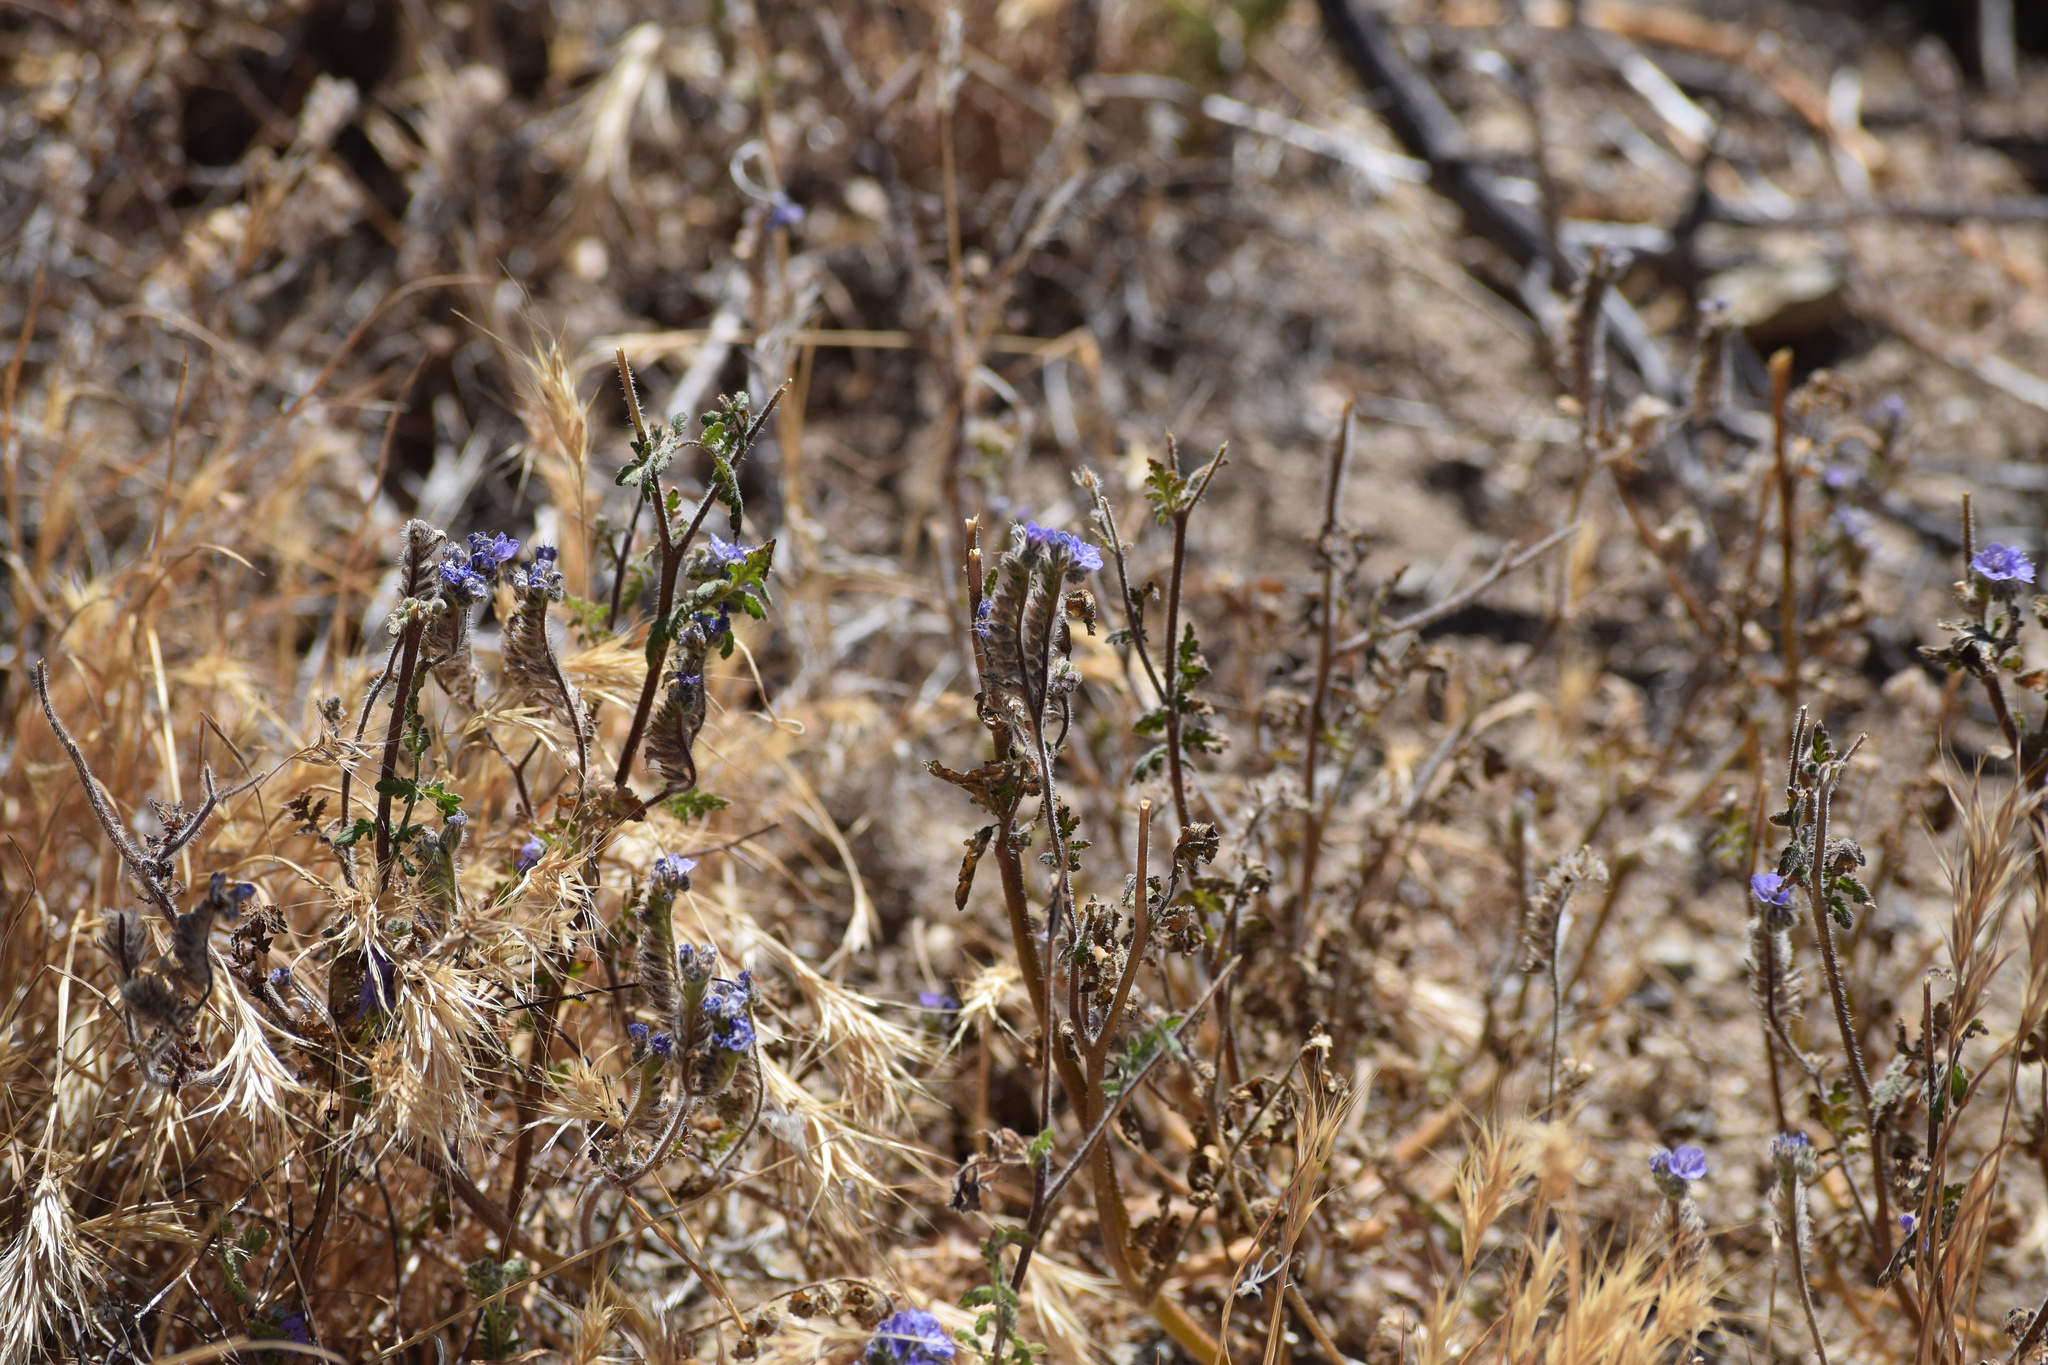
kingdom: Plantae
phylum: Tracheophyta
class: Magnoliopsida
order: Boraginales
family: Hydrophyllaceae
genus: Phacelia
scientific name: Phacelia distans
